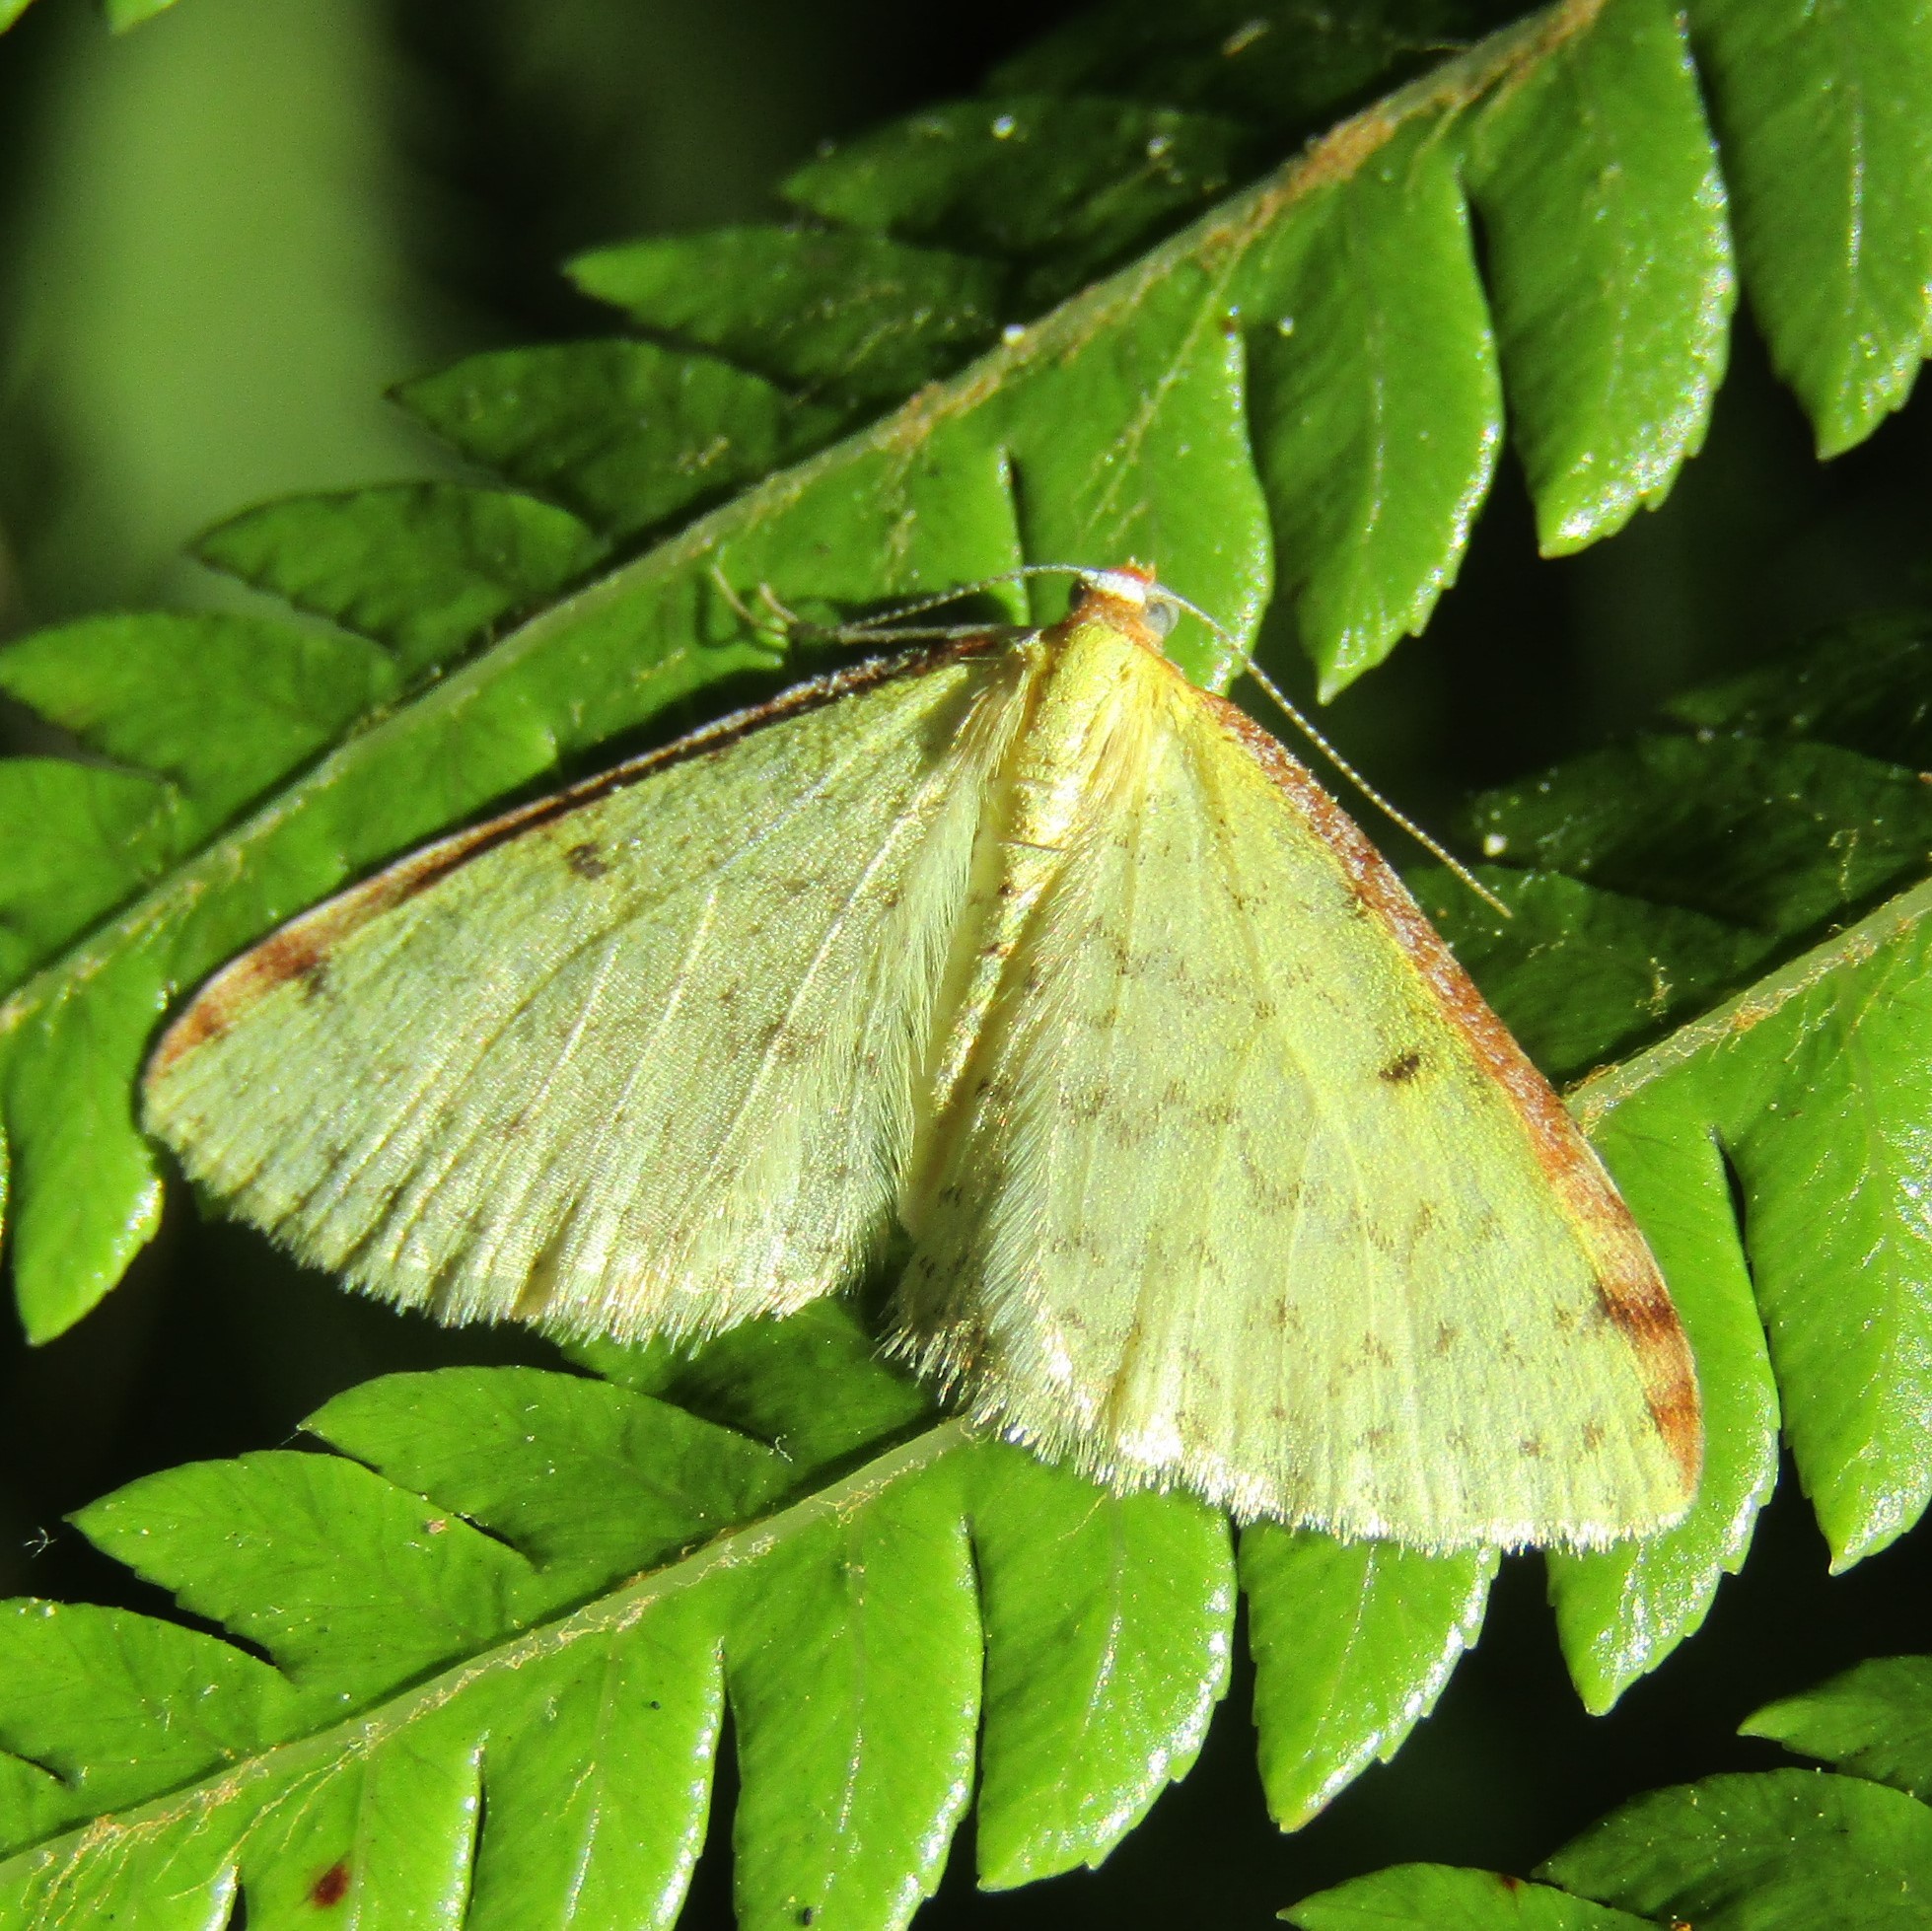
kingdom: Animalia
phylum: Arthropoda
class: Insecta
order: Lepidoptera
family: Geometridae
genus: Epiphryne
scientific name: Epiphryne undosata
